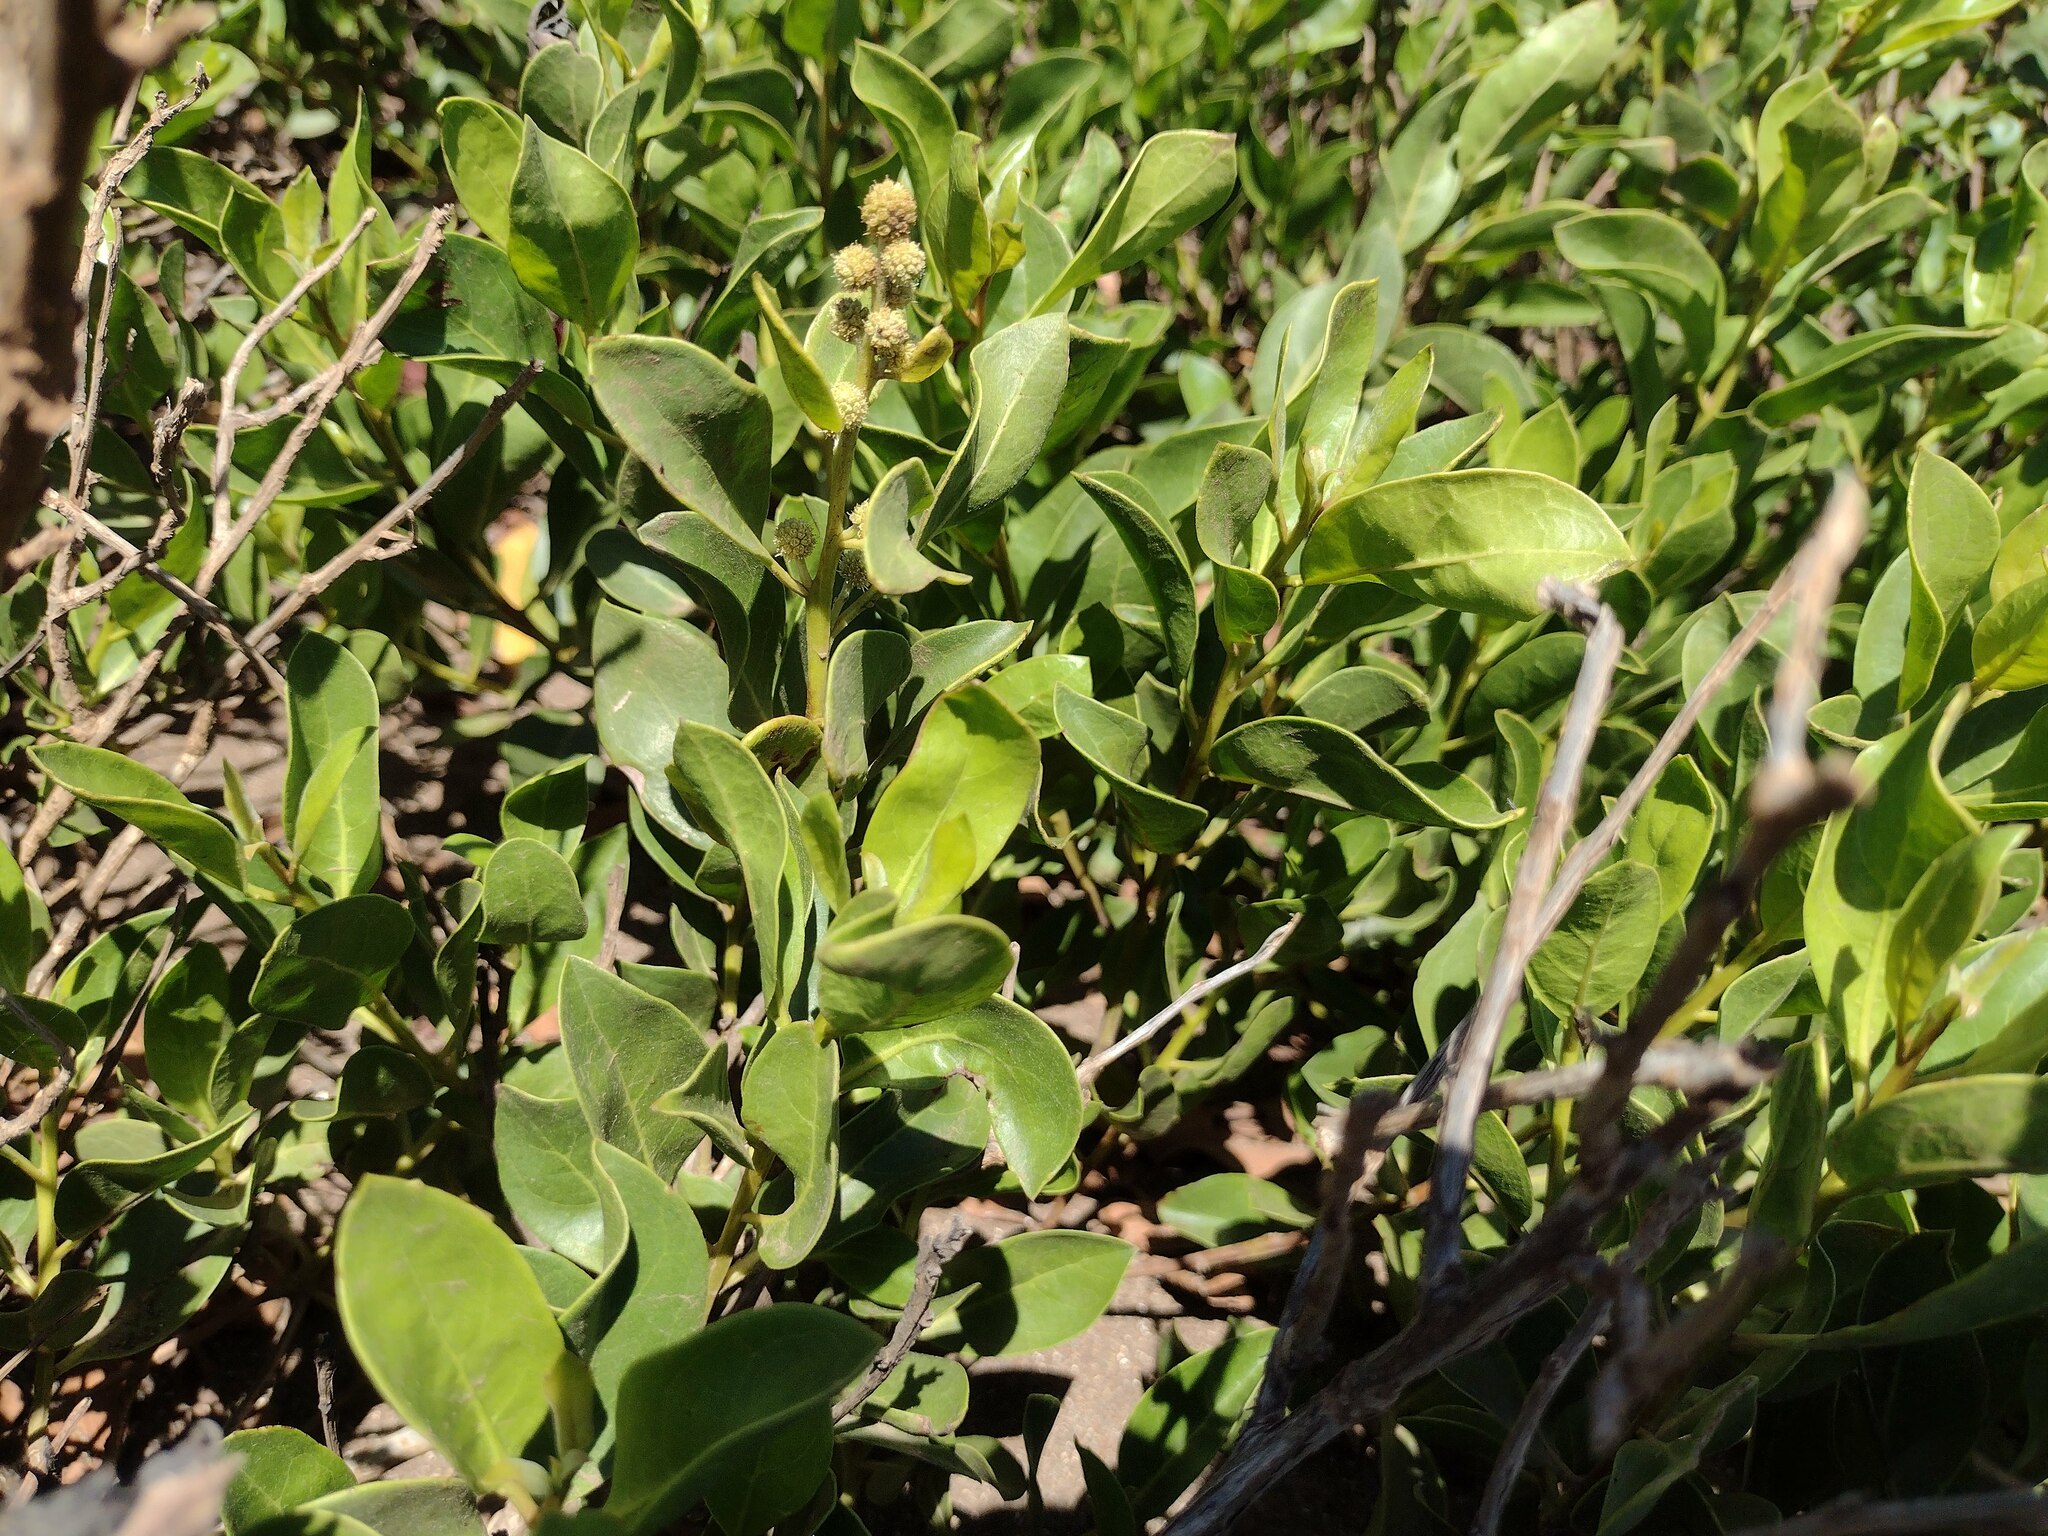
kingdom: Plantae
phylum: Tracheophyta
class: Magnoliopsida
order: Myrtales
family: Combretaceae
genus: Conocarpus
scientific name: Conocarpus erectus
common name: Button mangrove
